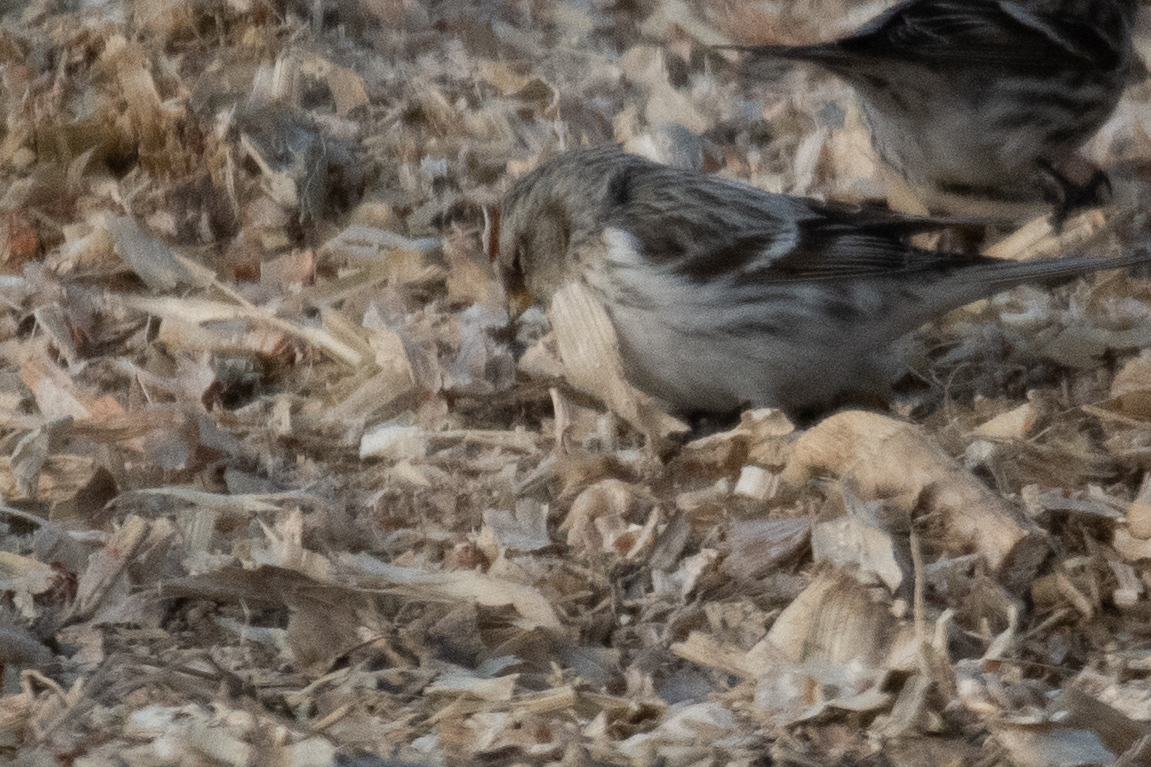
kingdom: Animalia
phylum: Chordata
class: Aves
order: Passeriformes
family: Fringillidae
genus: Acanthis
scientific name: Acanthis hornemanni
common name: Arctic redpoll
